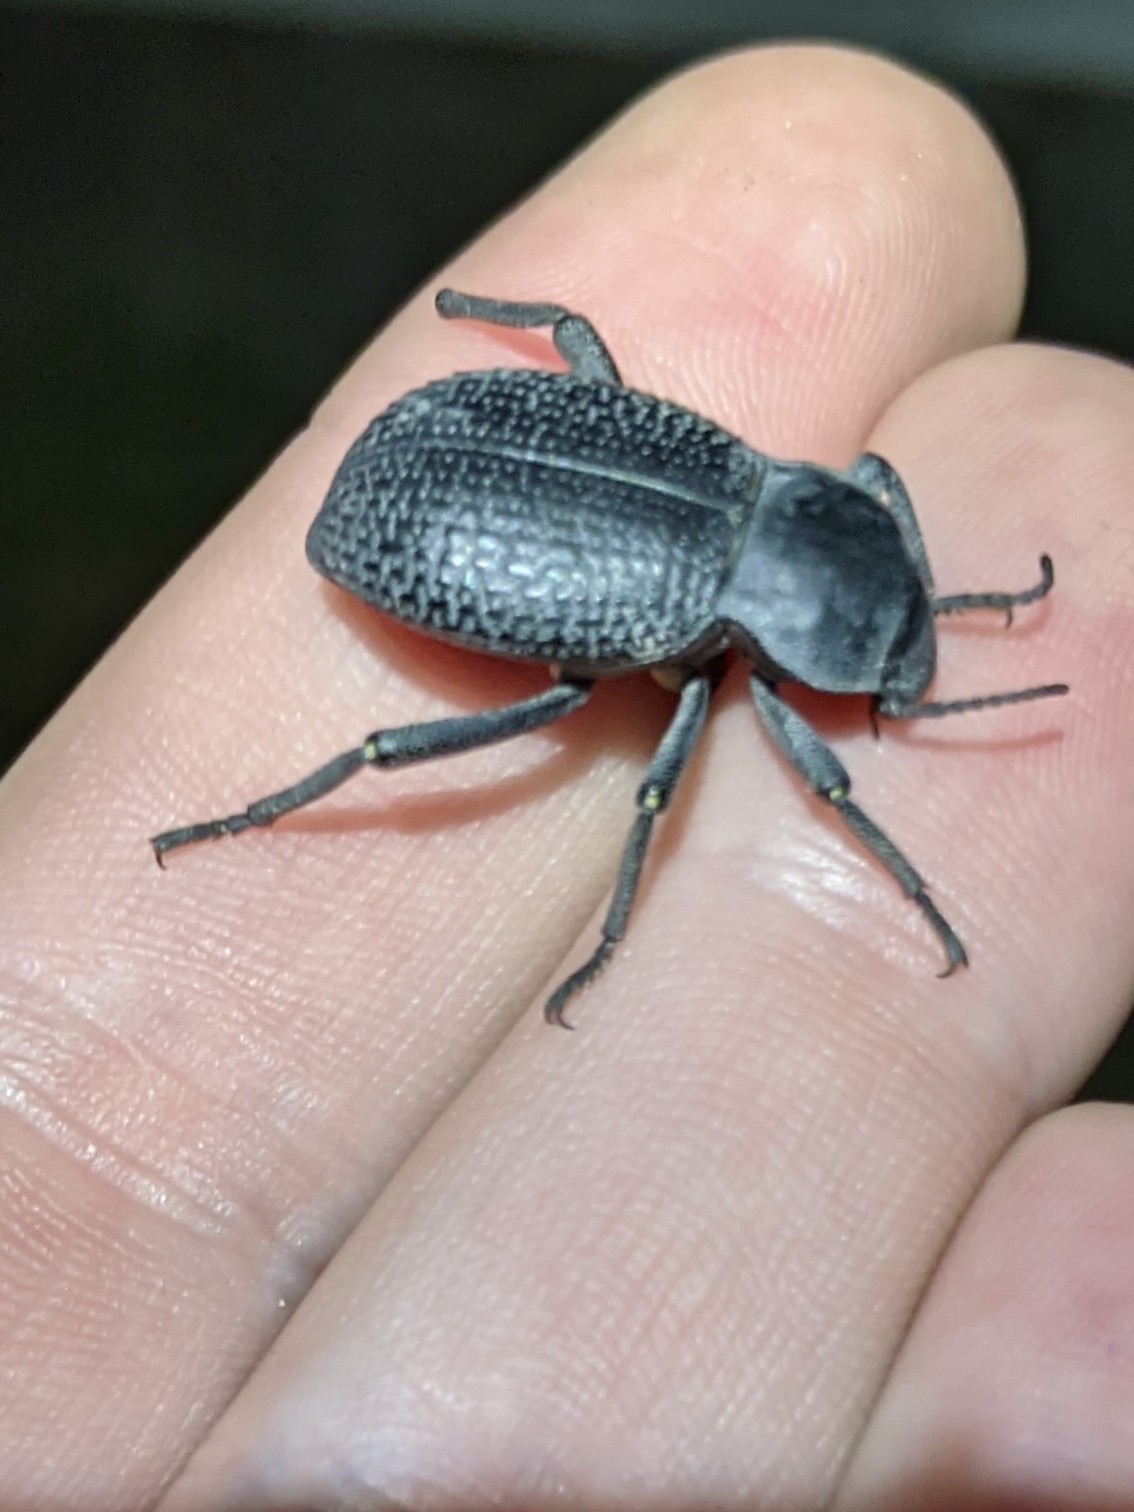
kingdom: Animalia
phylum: Arthropoda
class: Insecta
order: Coleoptera
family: Tenebrionidae
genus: Cryptoglossa
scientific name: Cryptoglossa infausta
